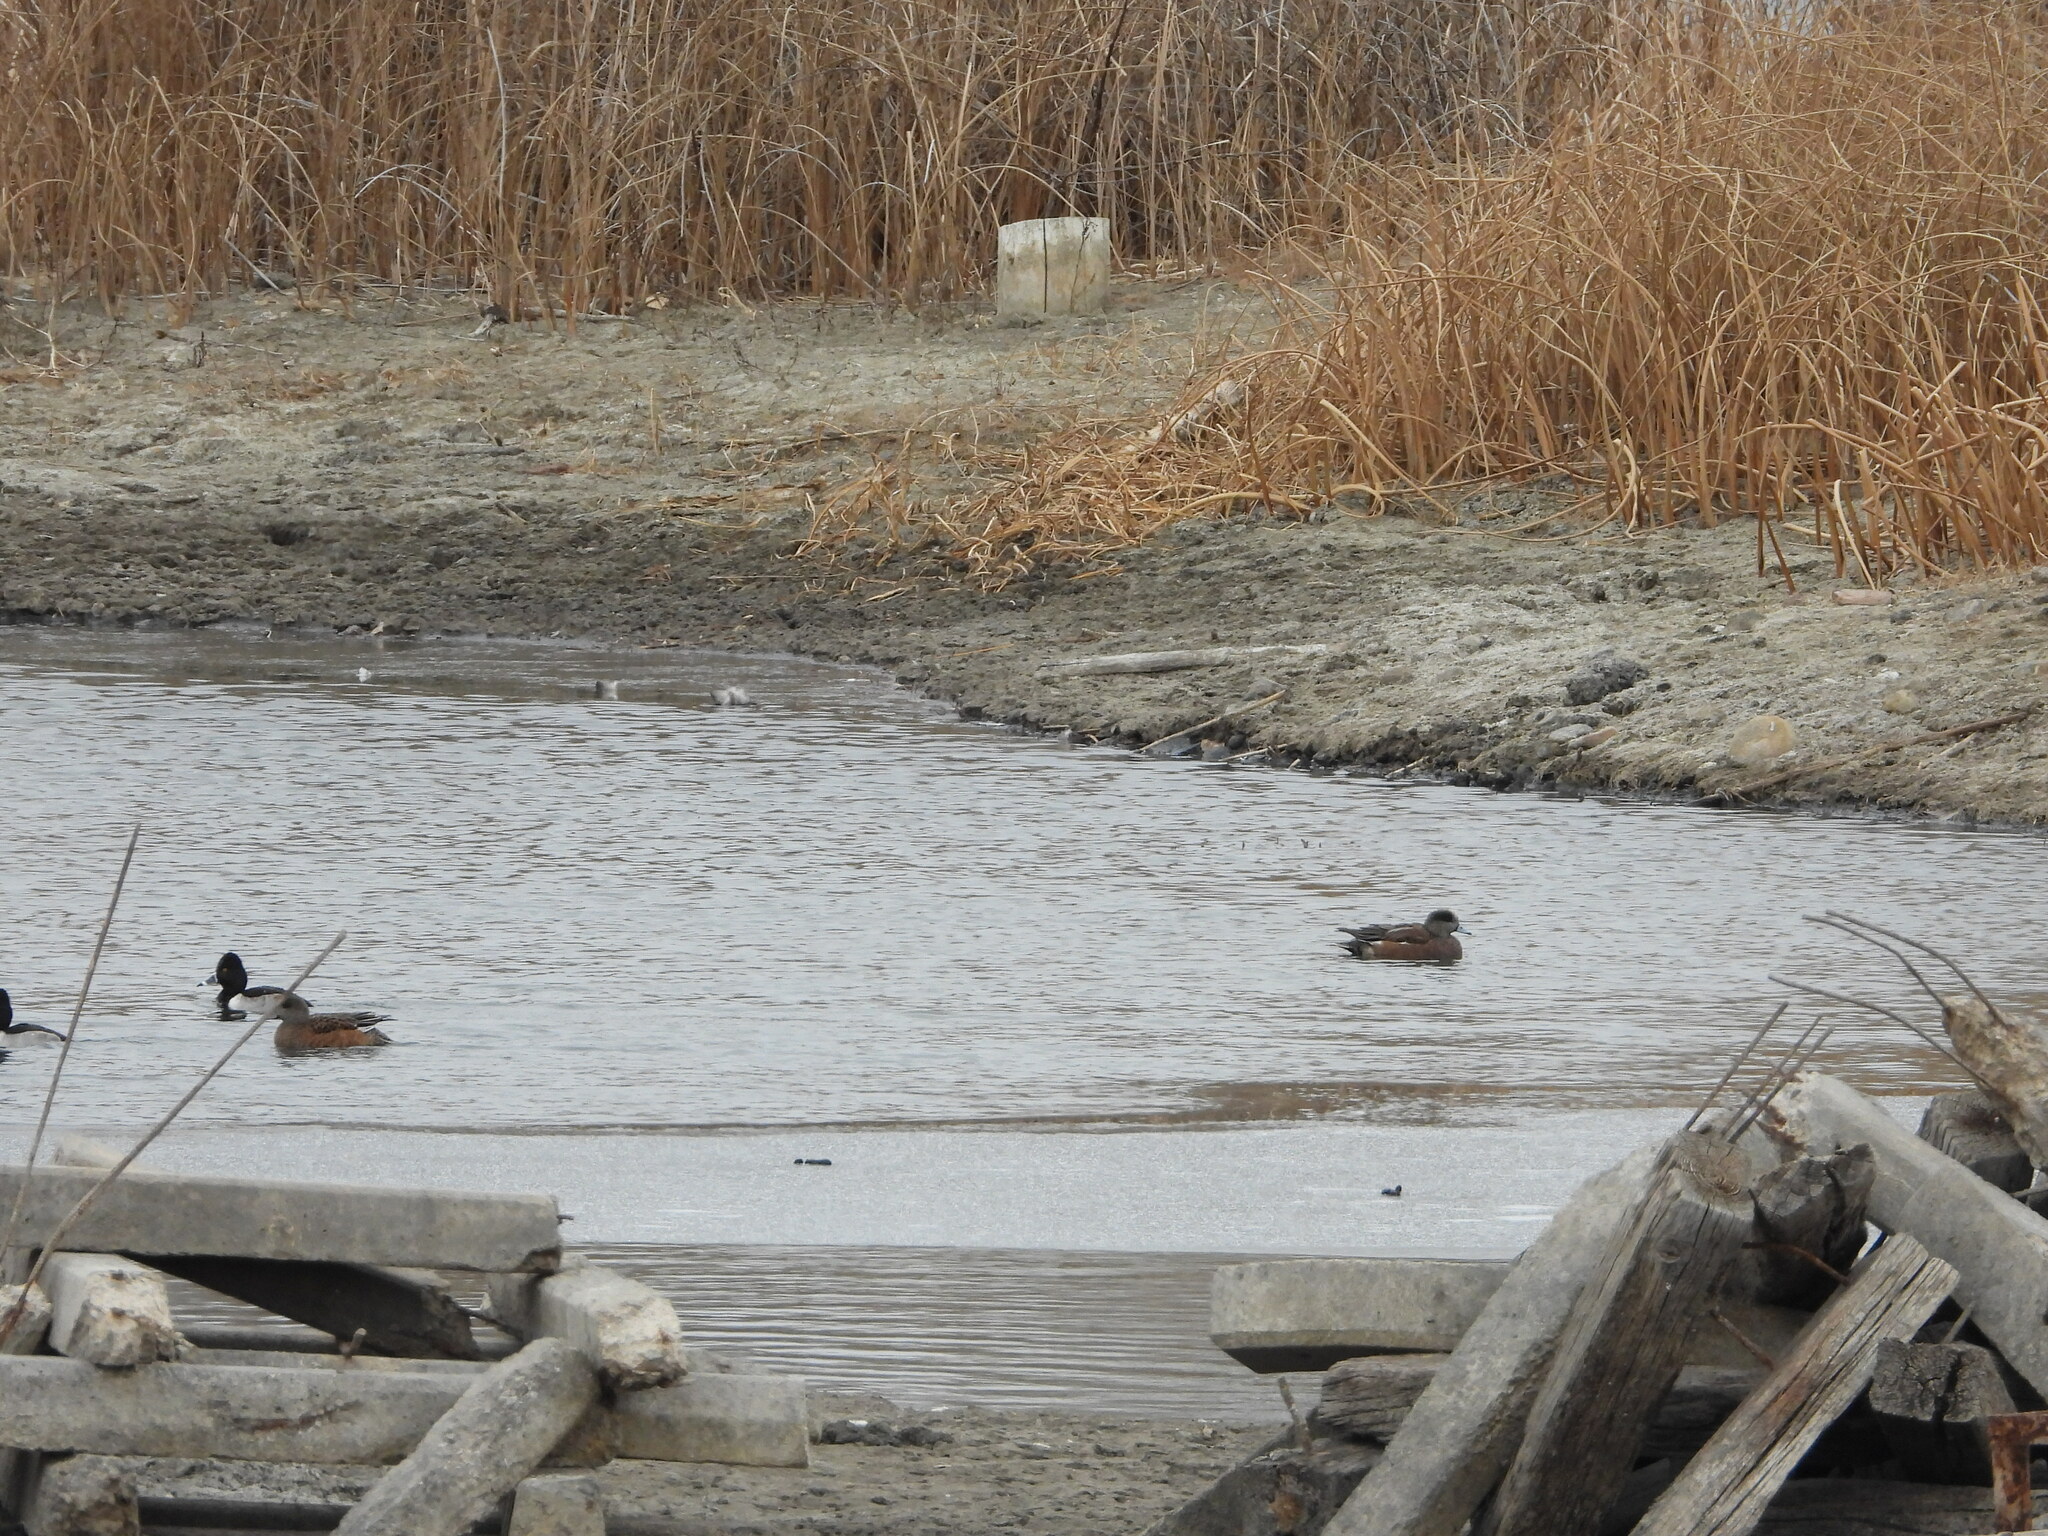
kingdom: Animalia
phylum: Chordata
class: Aves
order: Anseriformes
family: Anatidae
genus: Mareca
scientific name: Mareca americana
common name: American wigeon
